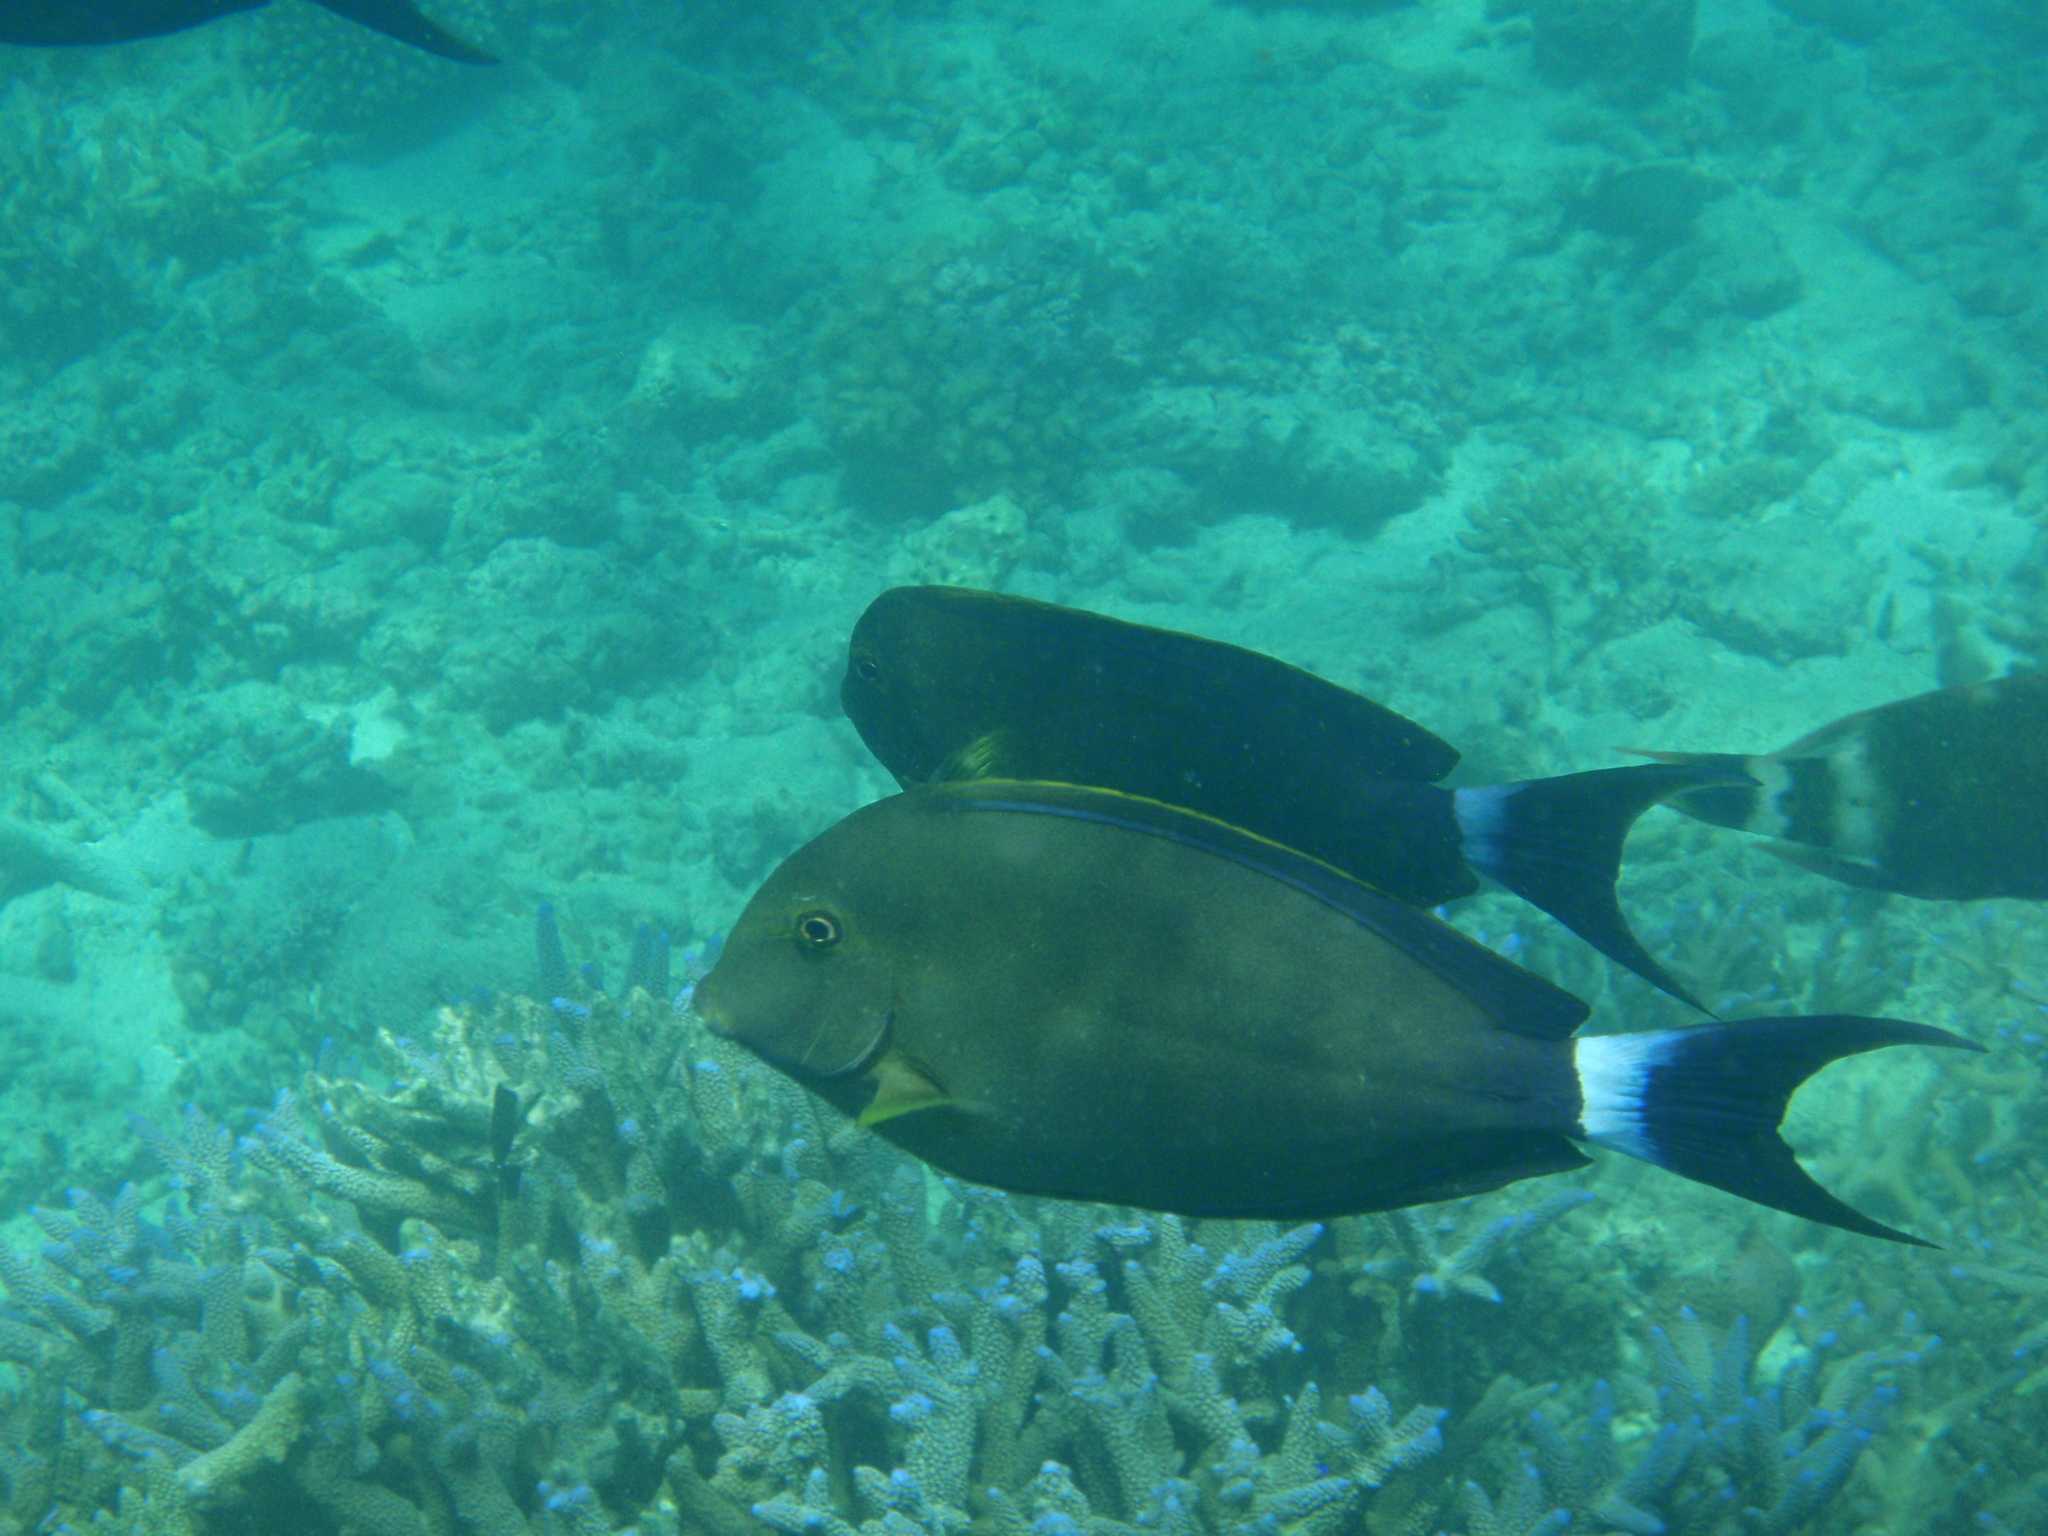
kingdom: Animalia
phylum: Chordata
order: Perciformes
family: Acanthuridae
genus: Acanthurus
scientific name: Acanthurus xanthopterus
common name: Cuvier's surgeonfish
